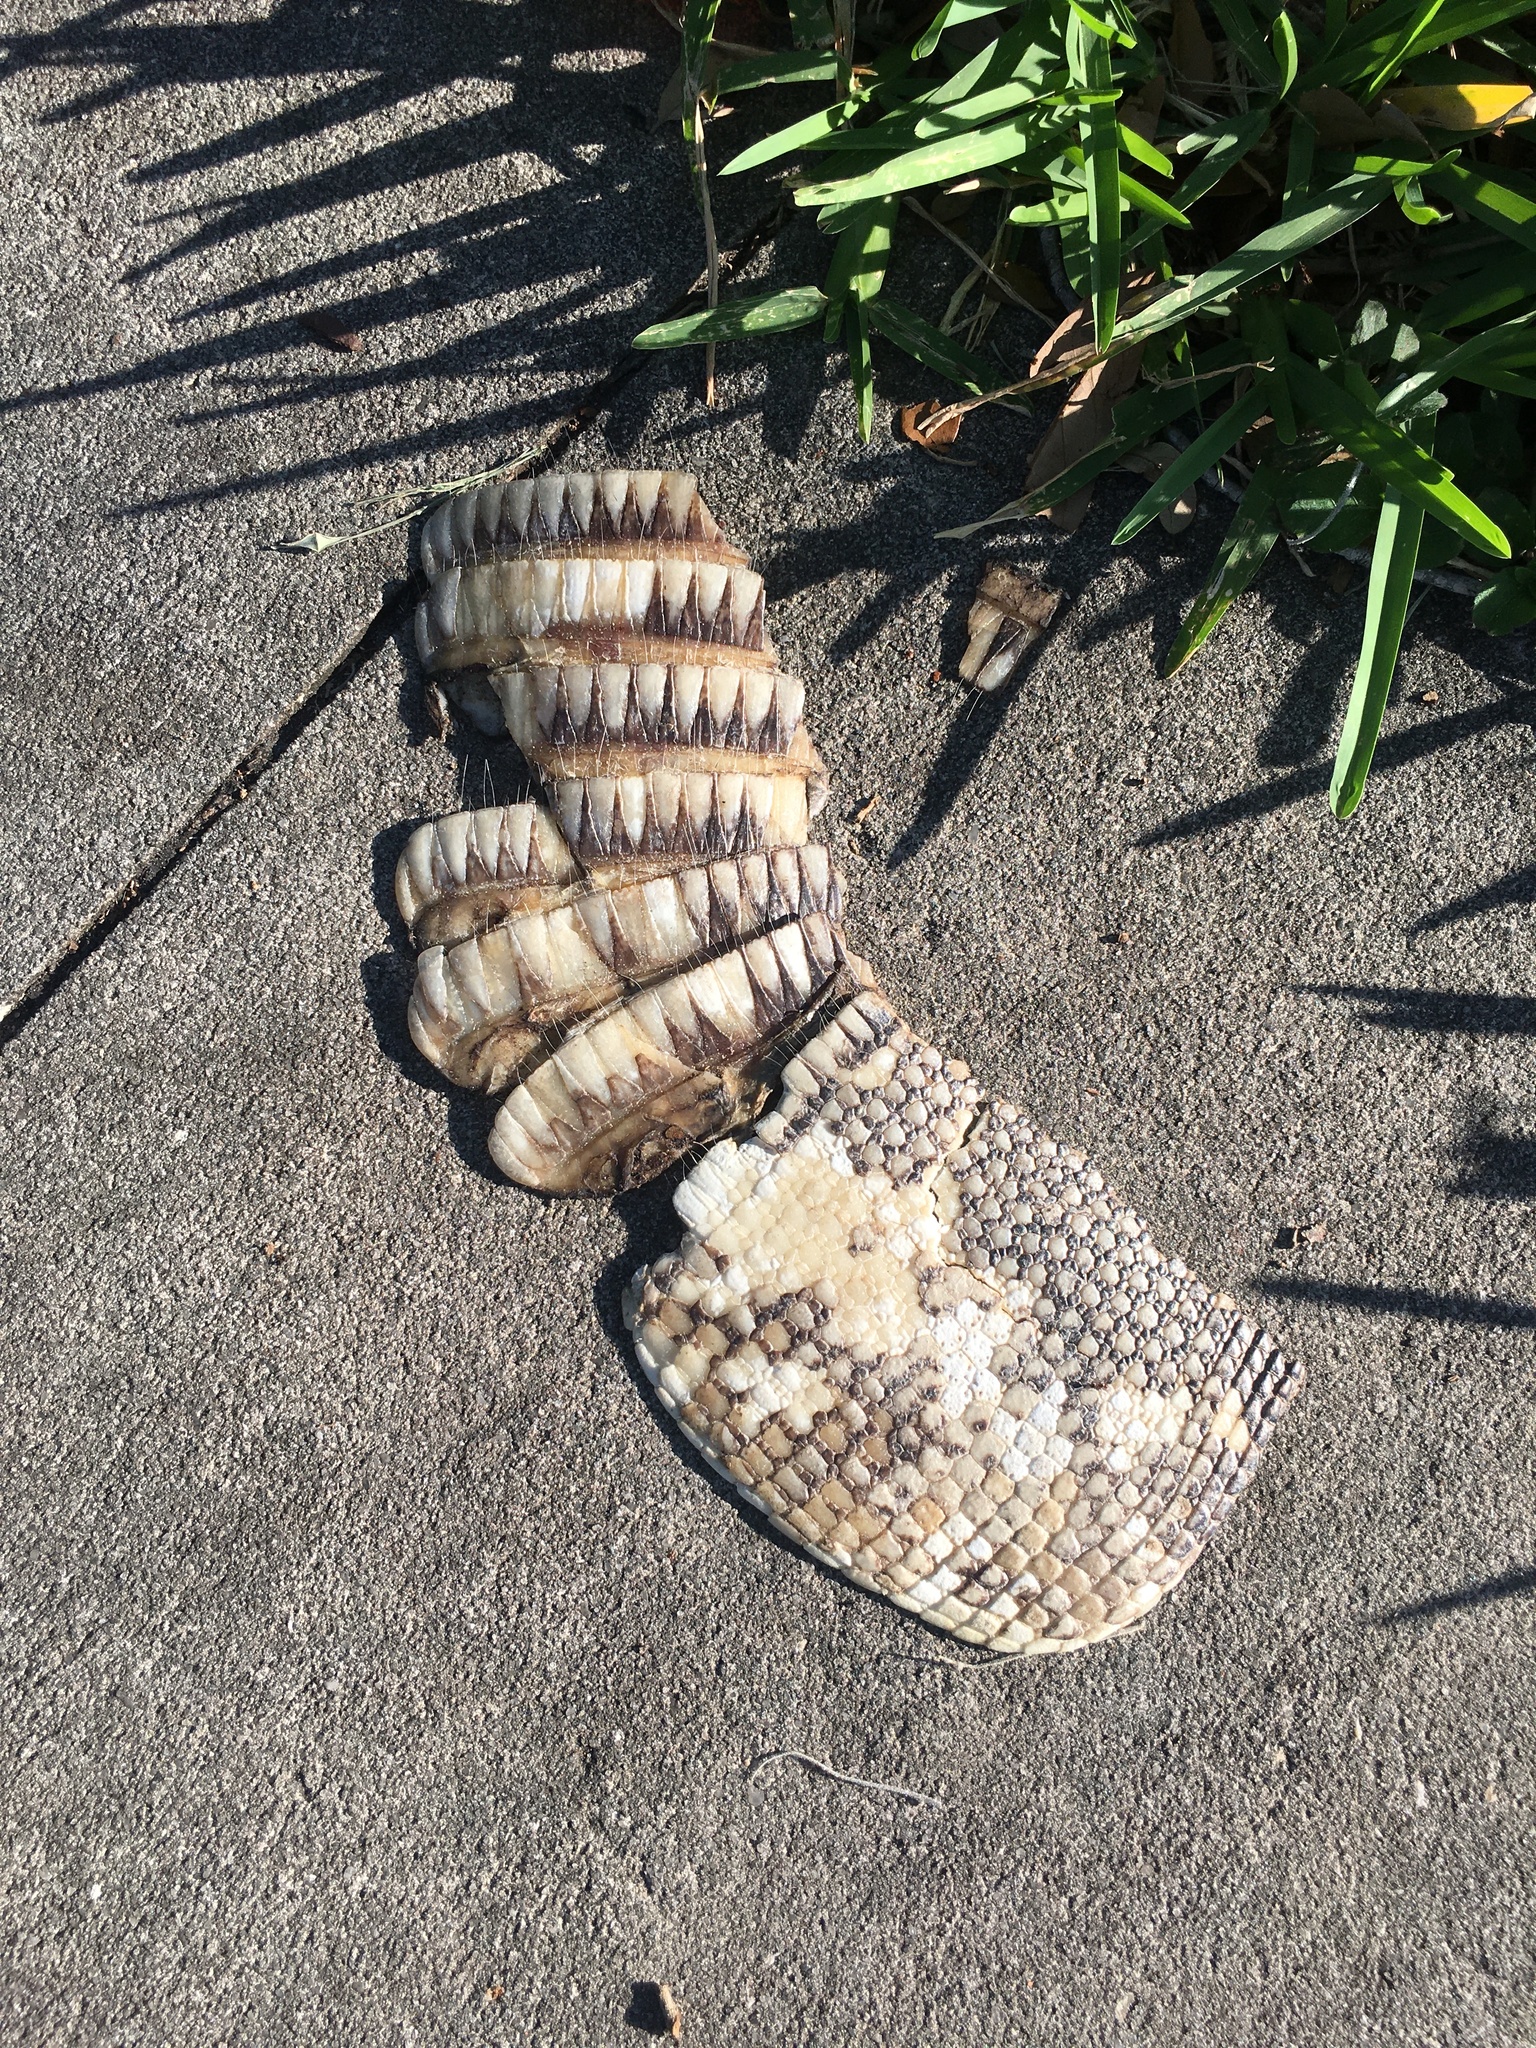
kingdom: Animalia
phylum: Chordata
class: Mammalia
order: Cingulata
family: Dasypodidae
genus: Dasypus
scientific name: Dasypus novemcinctus
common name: Nine-banded armadillo
